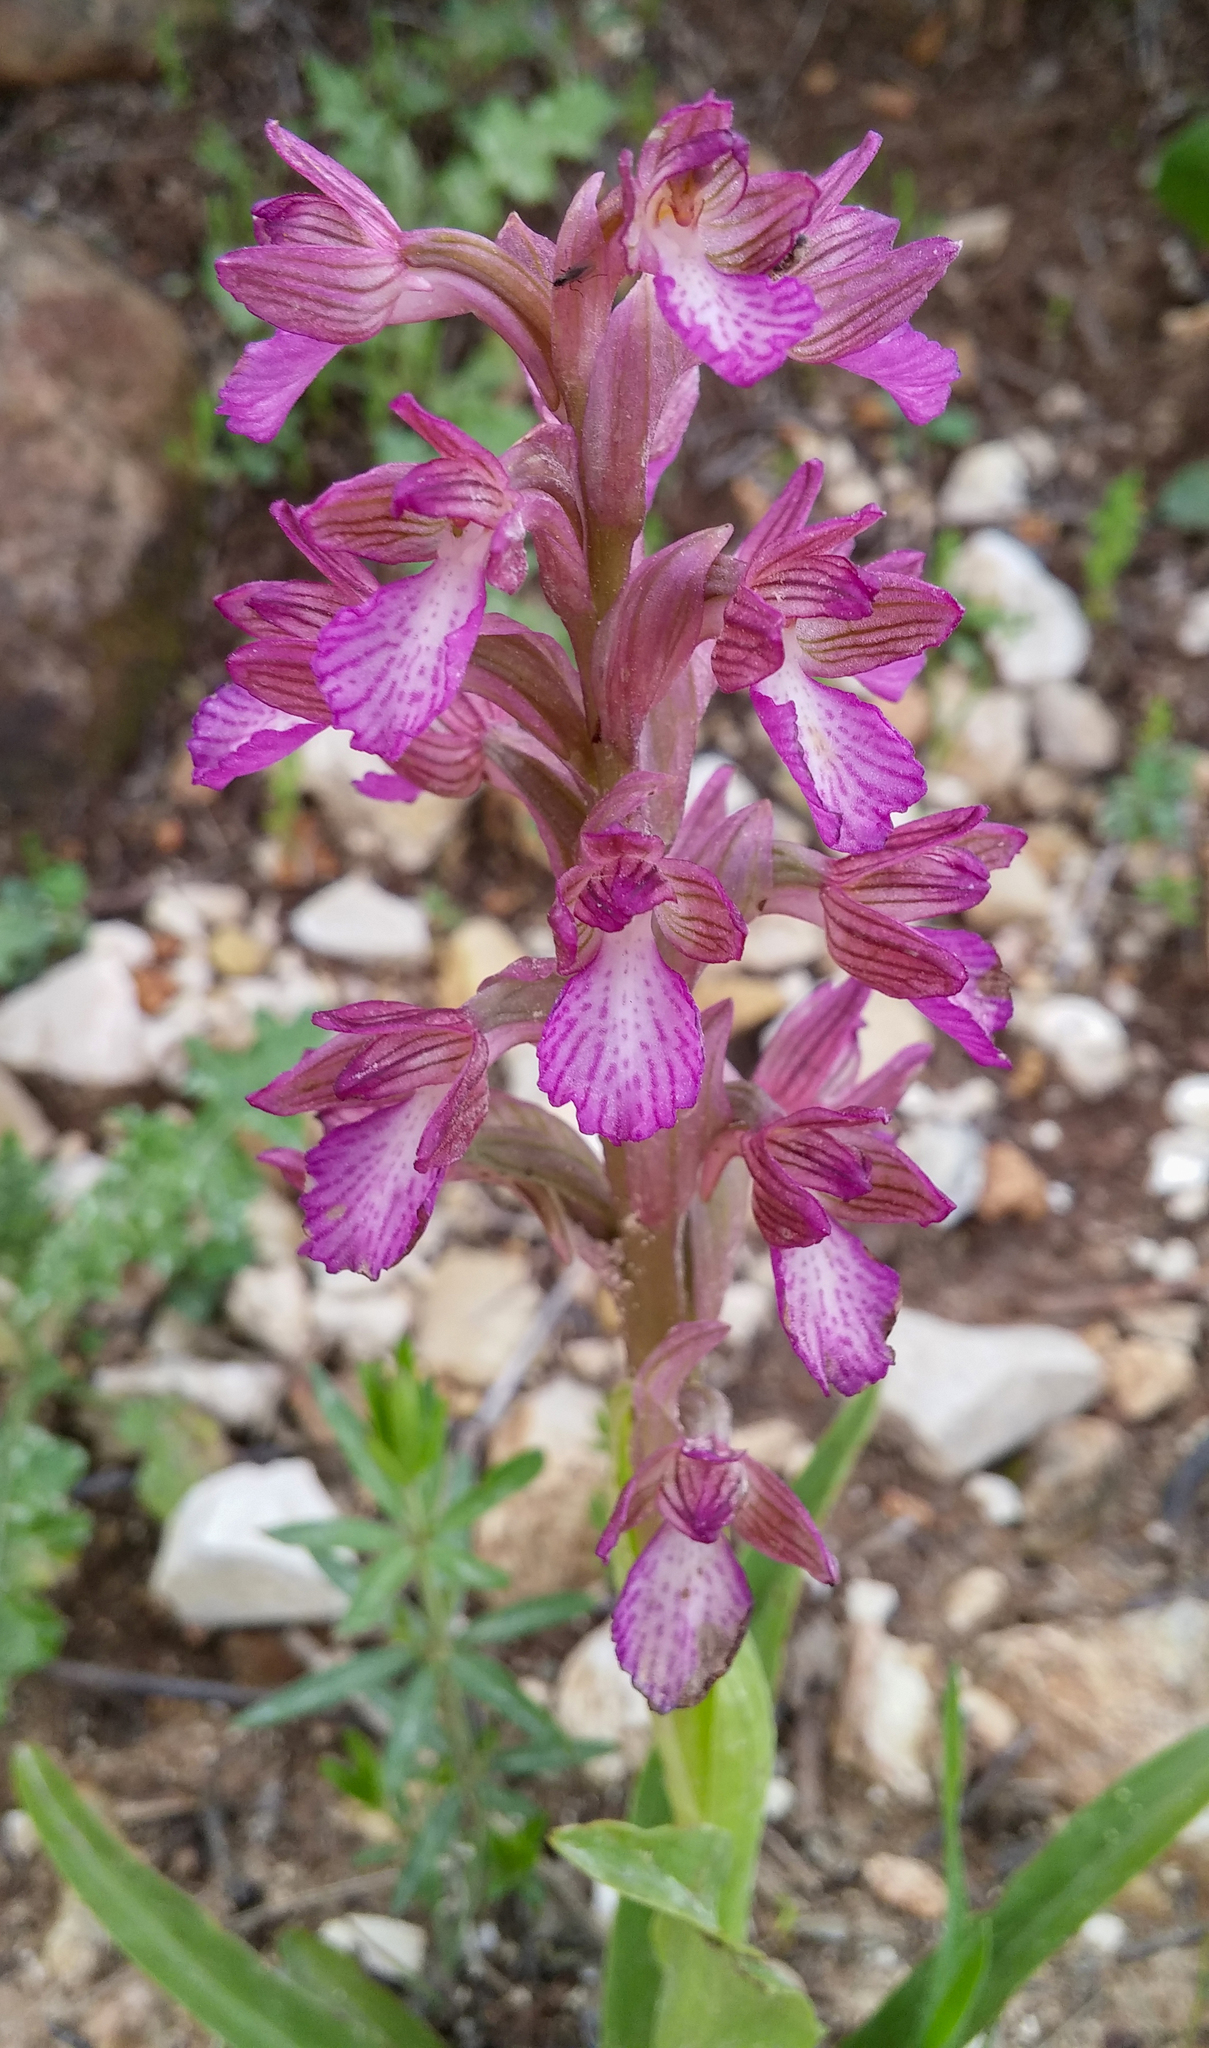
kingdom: Plantae
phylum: Tracheophyta
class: Liliopsida
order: Asparagales
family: Orchidaceae
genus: Anacamptis
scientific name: Anacamptis papilionacea
